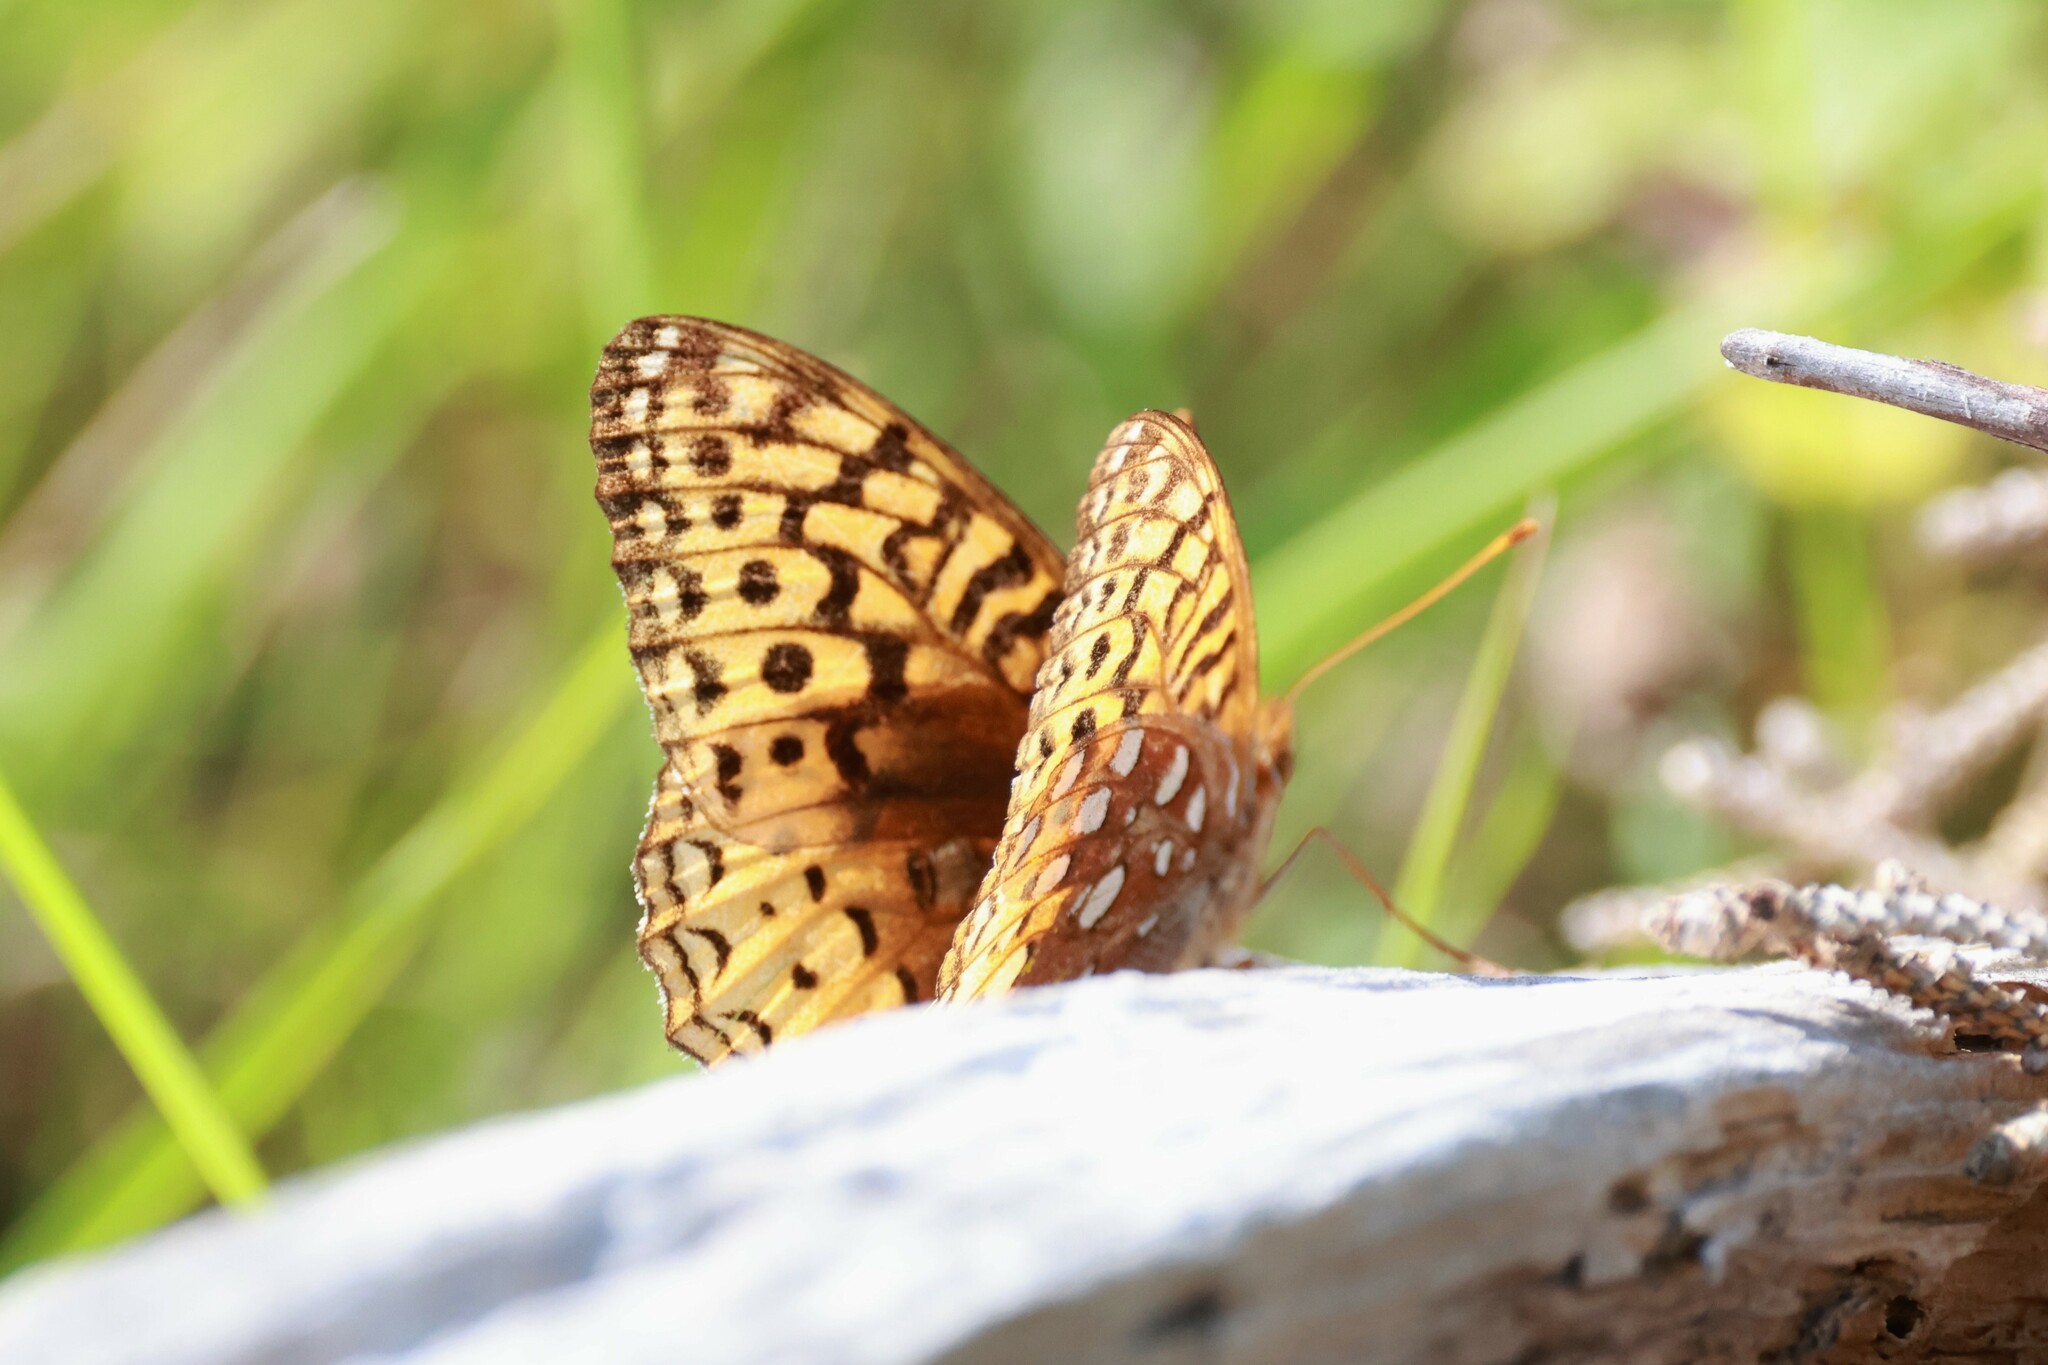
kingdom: Animalia
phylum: Arthropoda
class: Insecta
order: Lepidoptera
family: Nymphalidae
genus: Speyeria
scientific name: Speyeria cybele
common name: Great spangled fritillary
